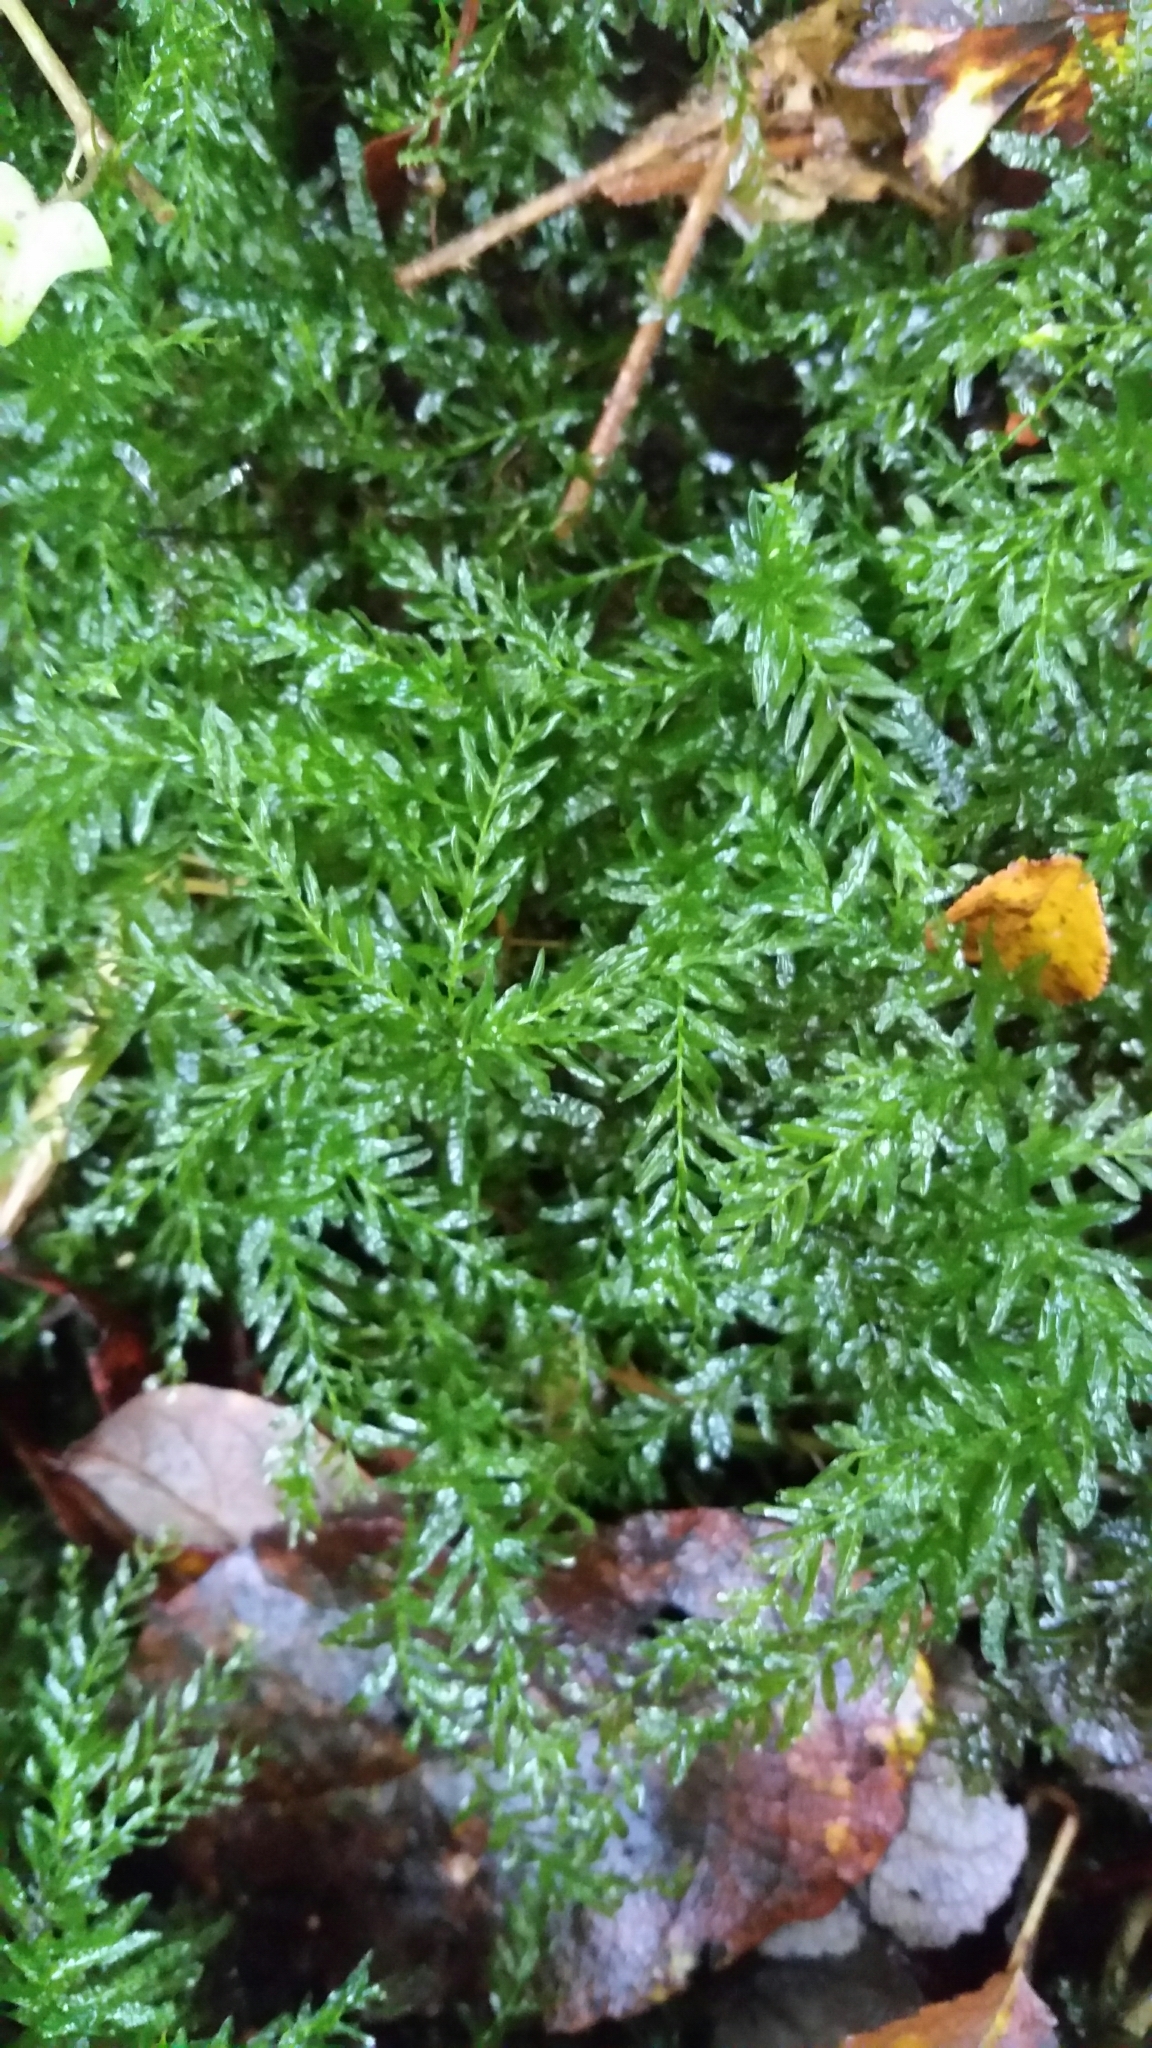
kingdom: Plantae
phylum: Bryophyta
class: Bryopsida
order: Bryales
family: Mniaceae
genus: Plagiomnium
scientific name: Plagiomnium undulatum
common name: Hart's-tongue thyme-moss
